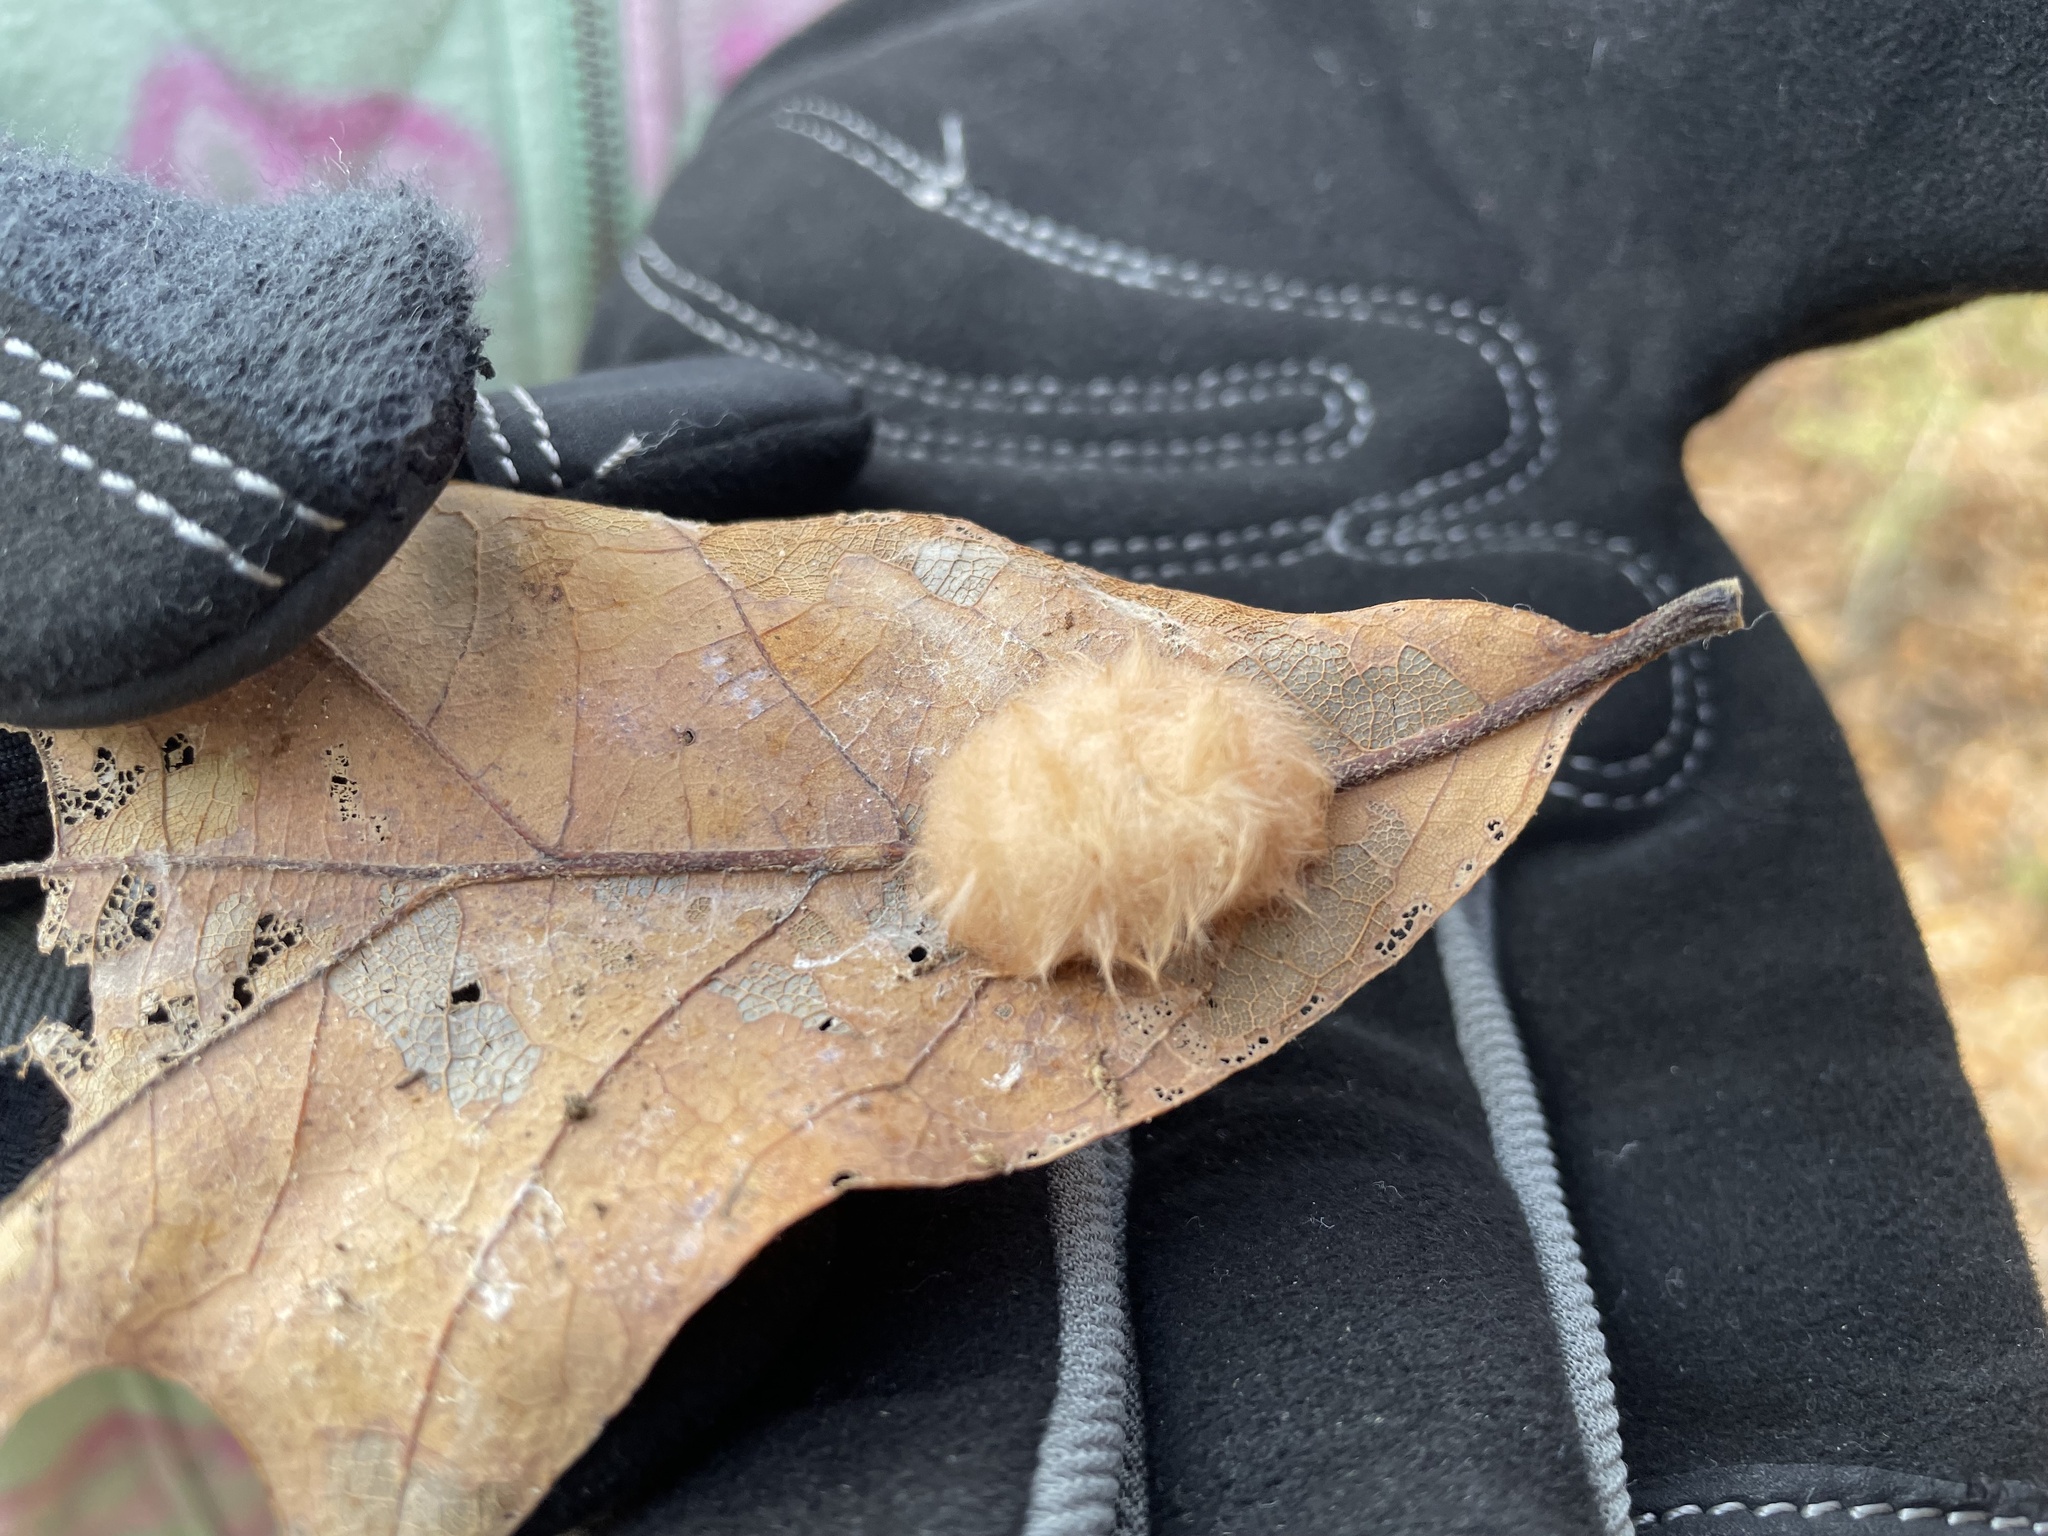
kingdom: Animalia
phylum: Arthropoda
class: Insecta
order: Hymenoptera
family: Cynipidae
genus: Andricus
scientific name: Andricus Druon pattoni
